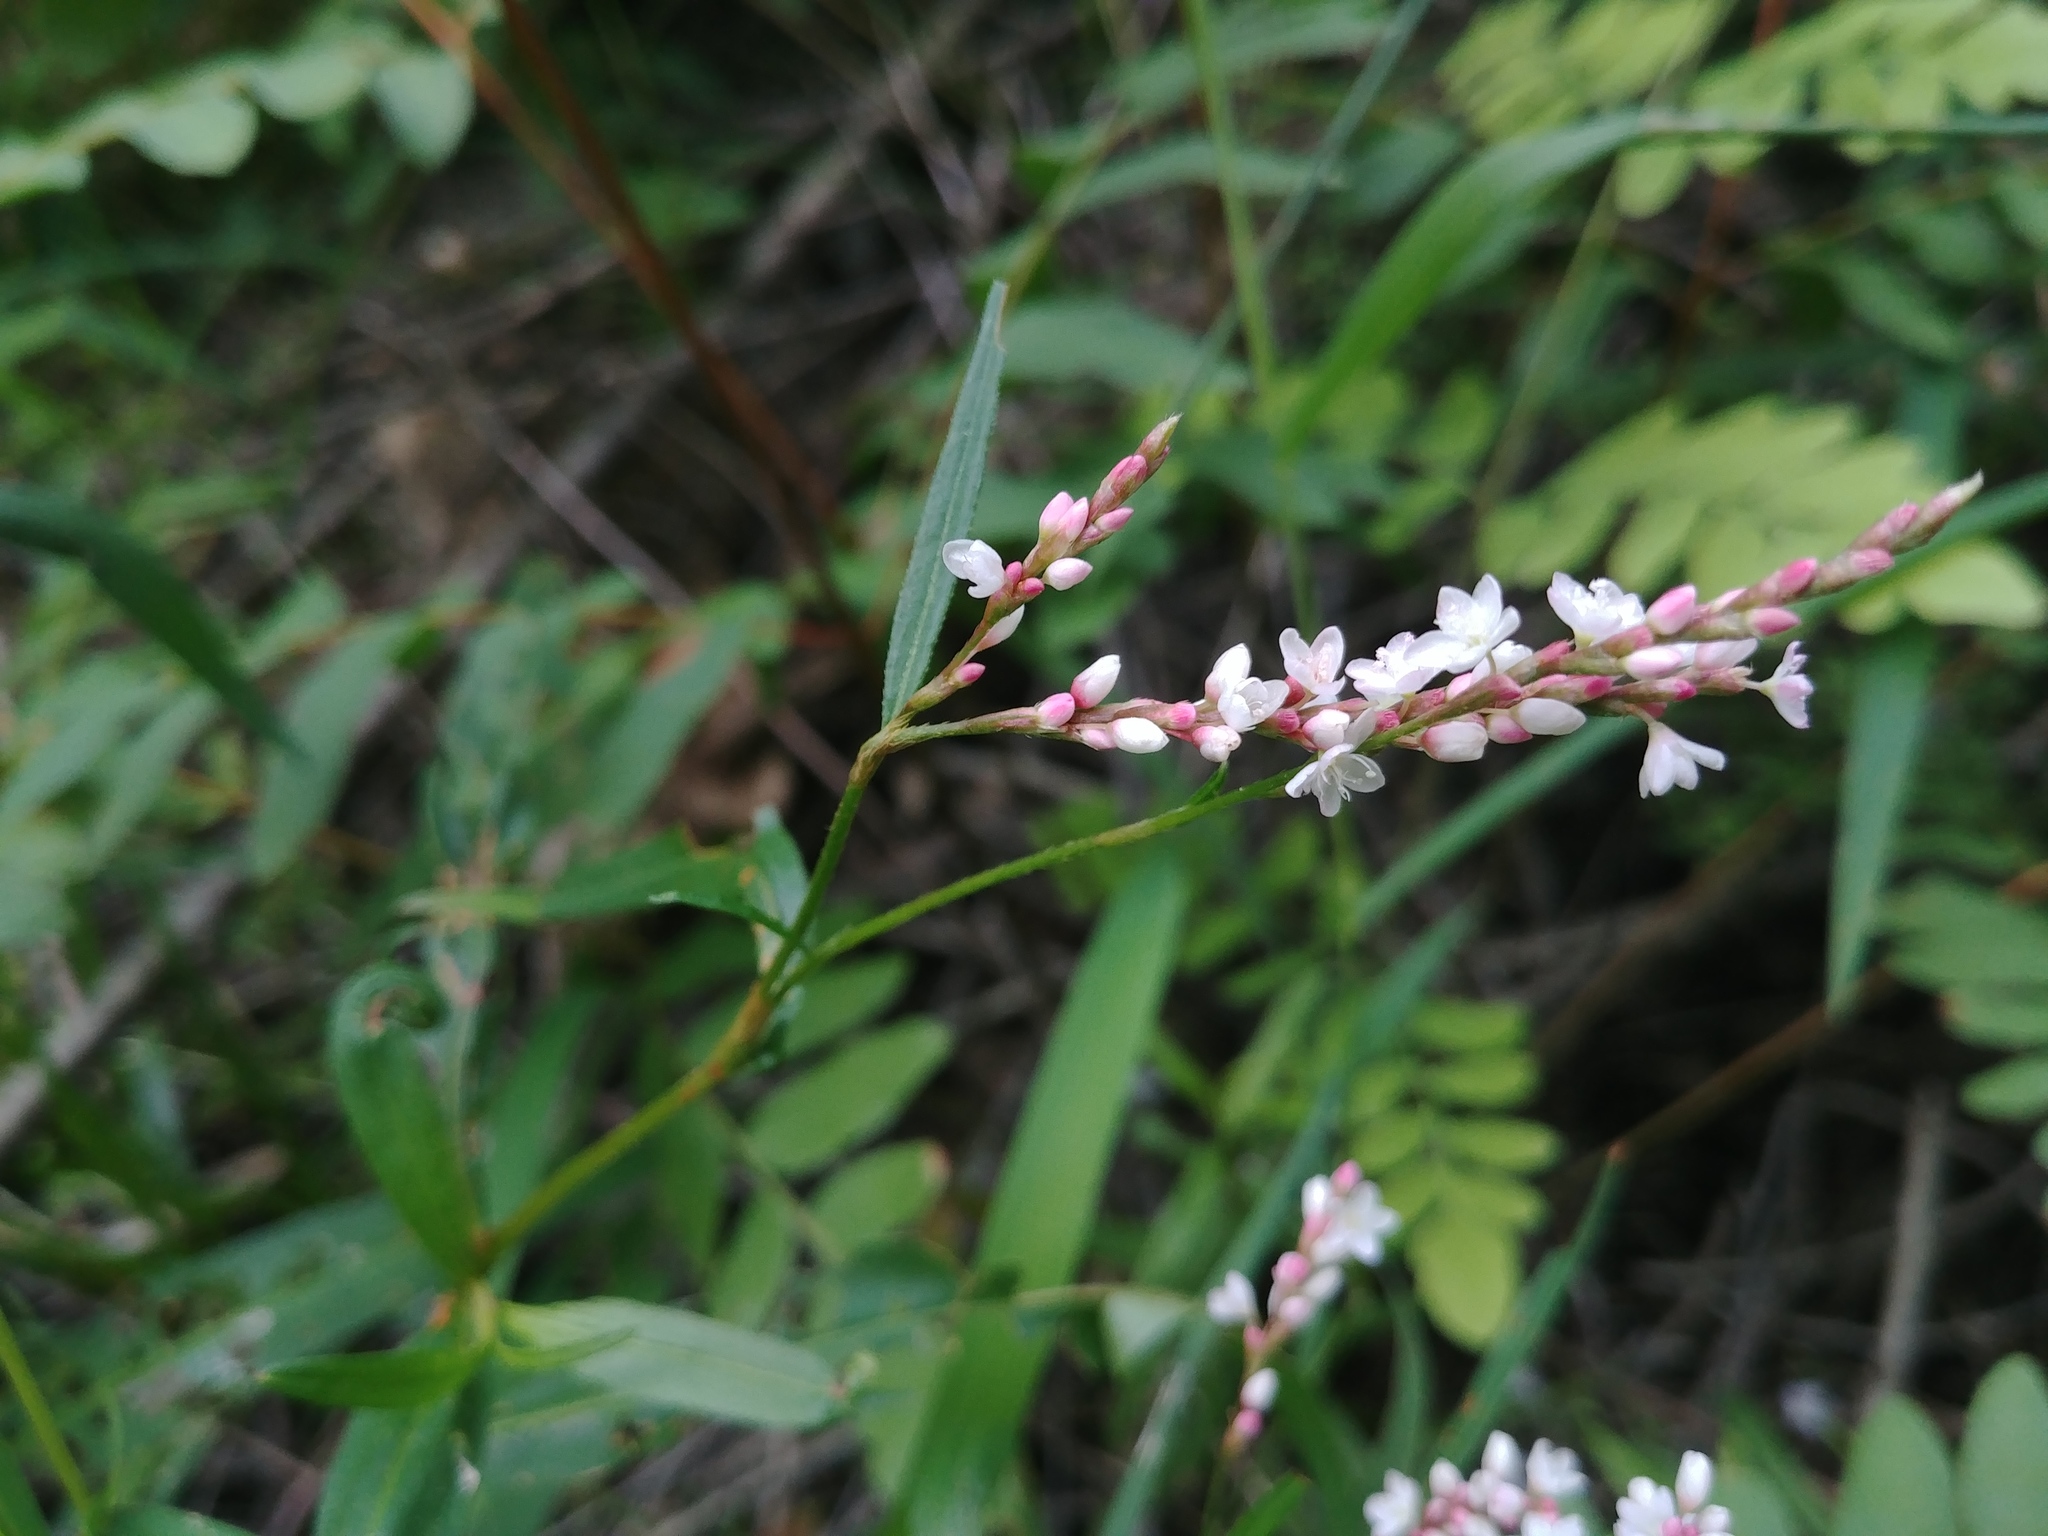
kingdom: Plantae
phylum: Tracheophyta
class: Magnoliopsida
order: Caryophyllales
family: Polygonaceae
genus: Persicaria
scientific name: Persicaria hydropiperoides
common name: Swamp smartweed
